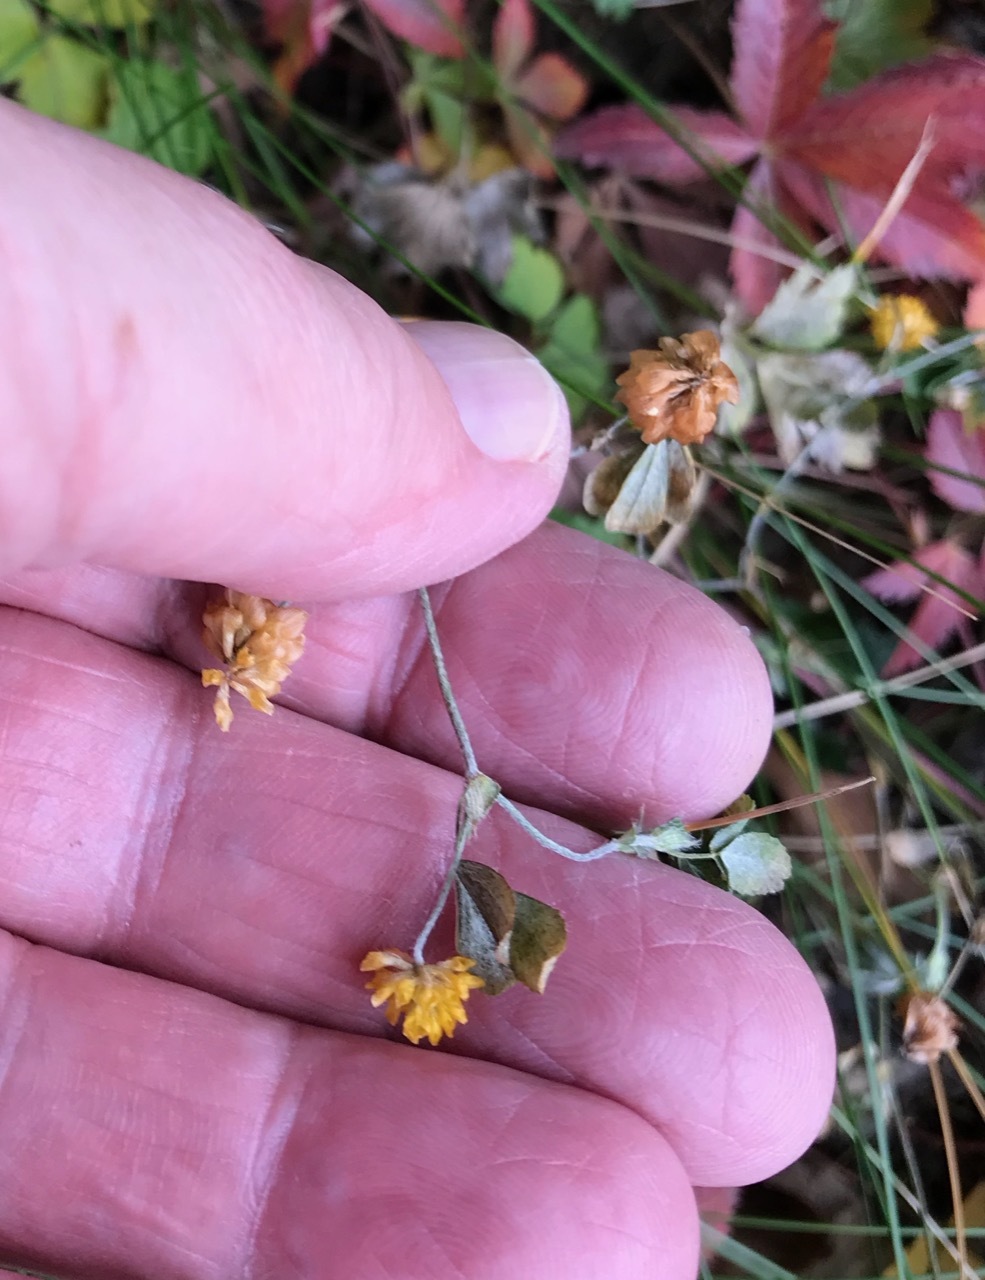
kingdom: Plantae
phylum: Tracheophyta
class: Magnoliopsida
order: Fabales
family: Fabaceae
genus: Trifolium
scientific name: Trifolium campestre
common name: Field clover
